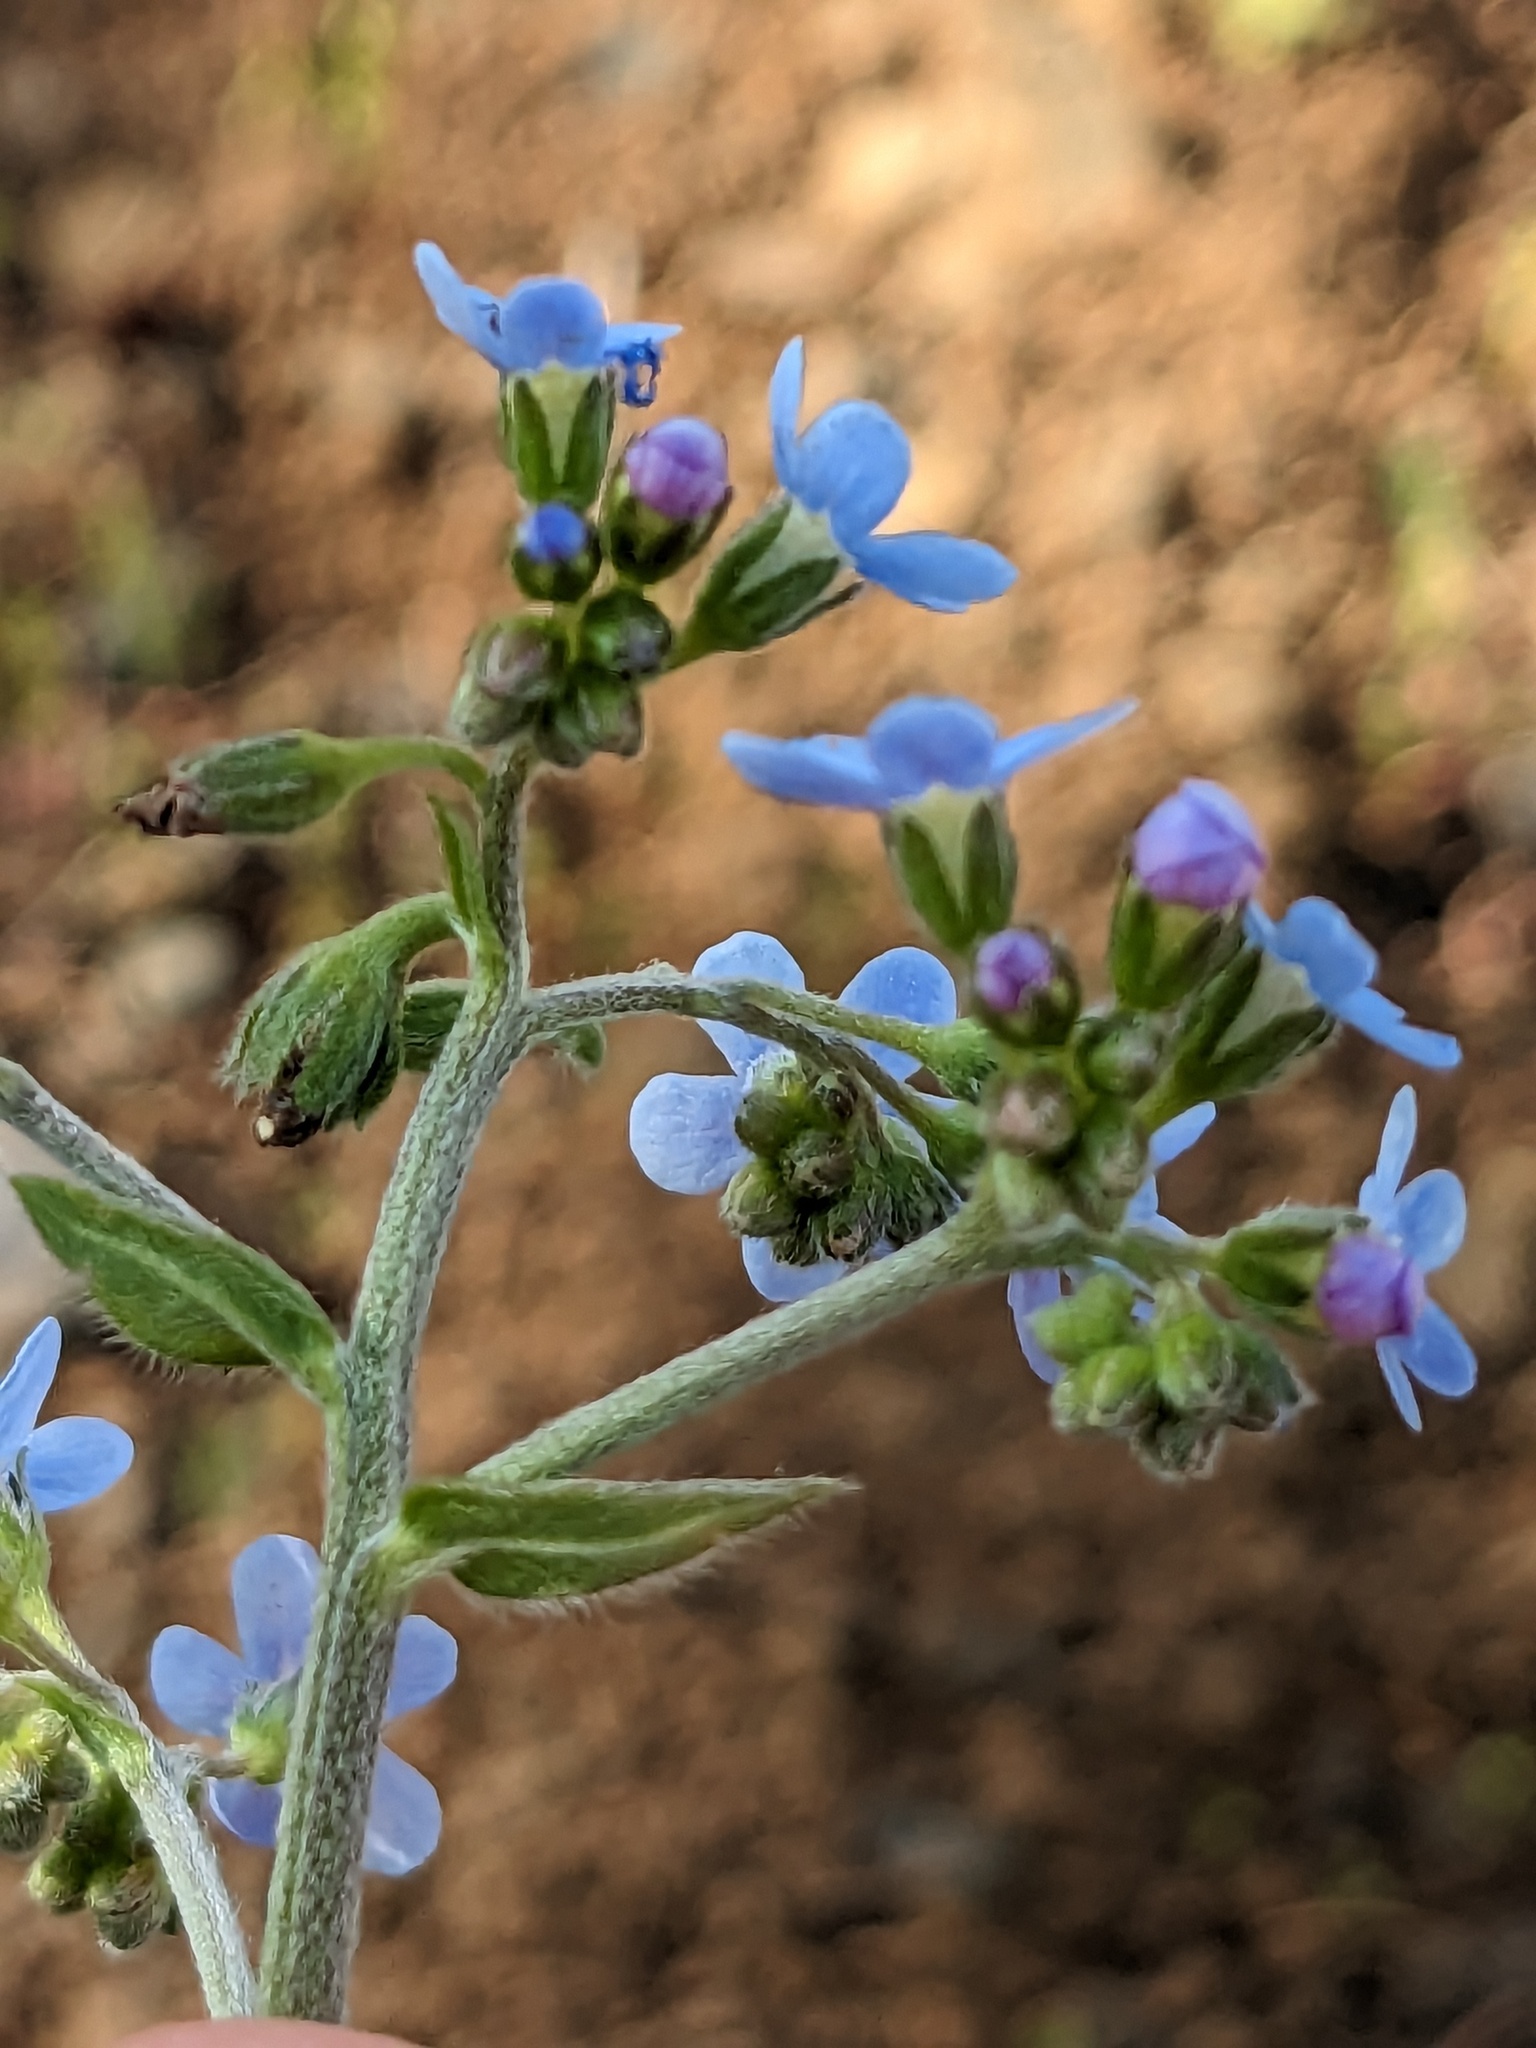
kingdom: Plantae
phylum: Tracheophyta
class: Magnoliopsida
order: Boraginales
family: Boraginaceae
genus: Hackelia
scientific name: Hackelia micrantha
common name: Meadow stickseed
